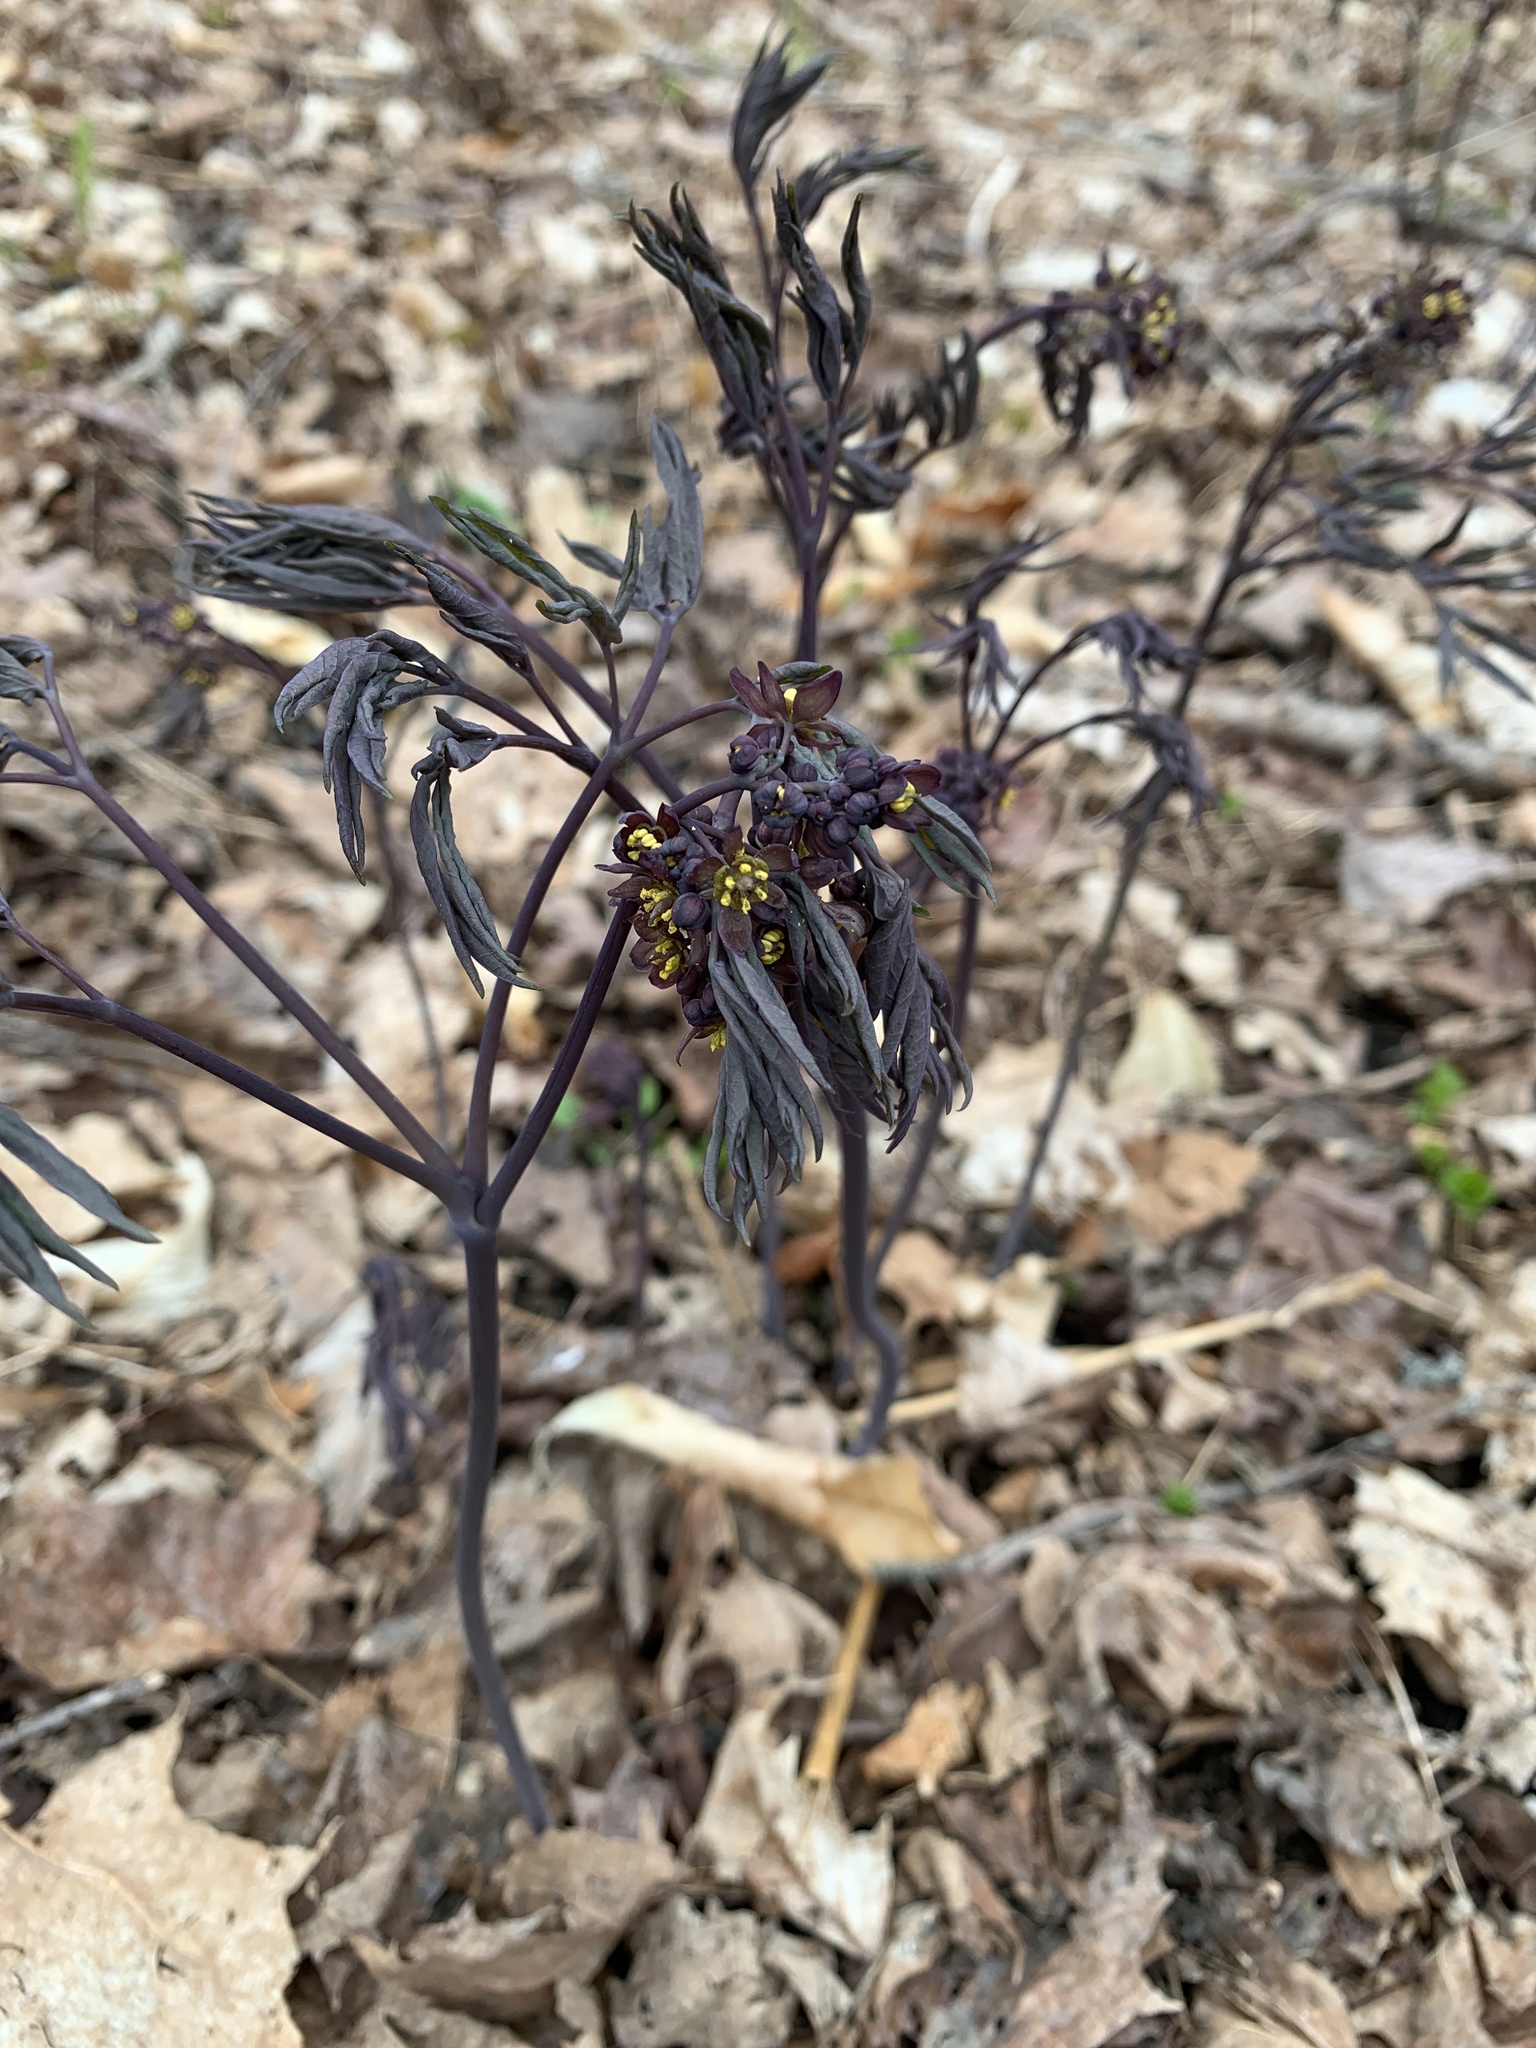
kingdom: Plantae
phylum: Tracheophyta
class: Magnoliopsida
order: Ranunculales
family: Berberidaceae
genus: Caulophyllum
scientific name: Caulophyllum giganteum
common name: Blue cohosh
